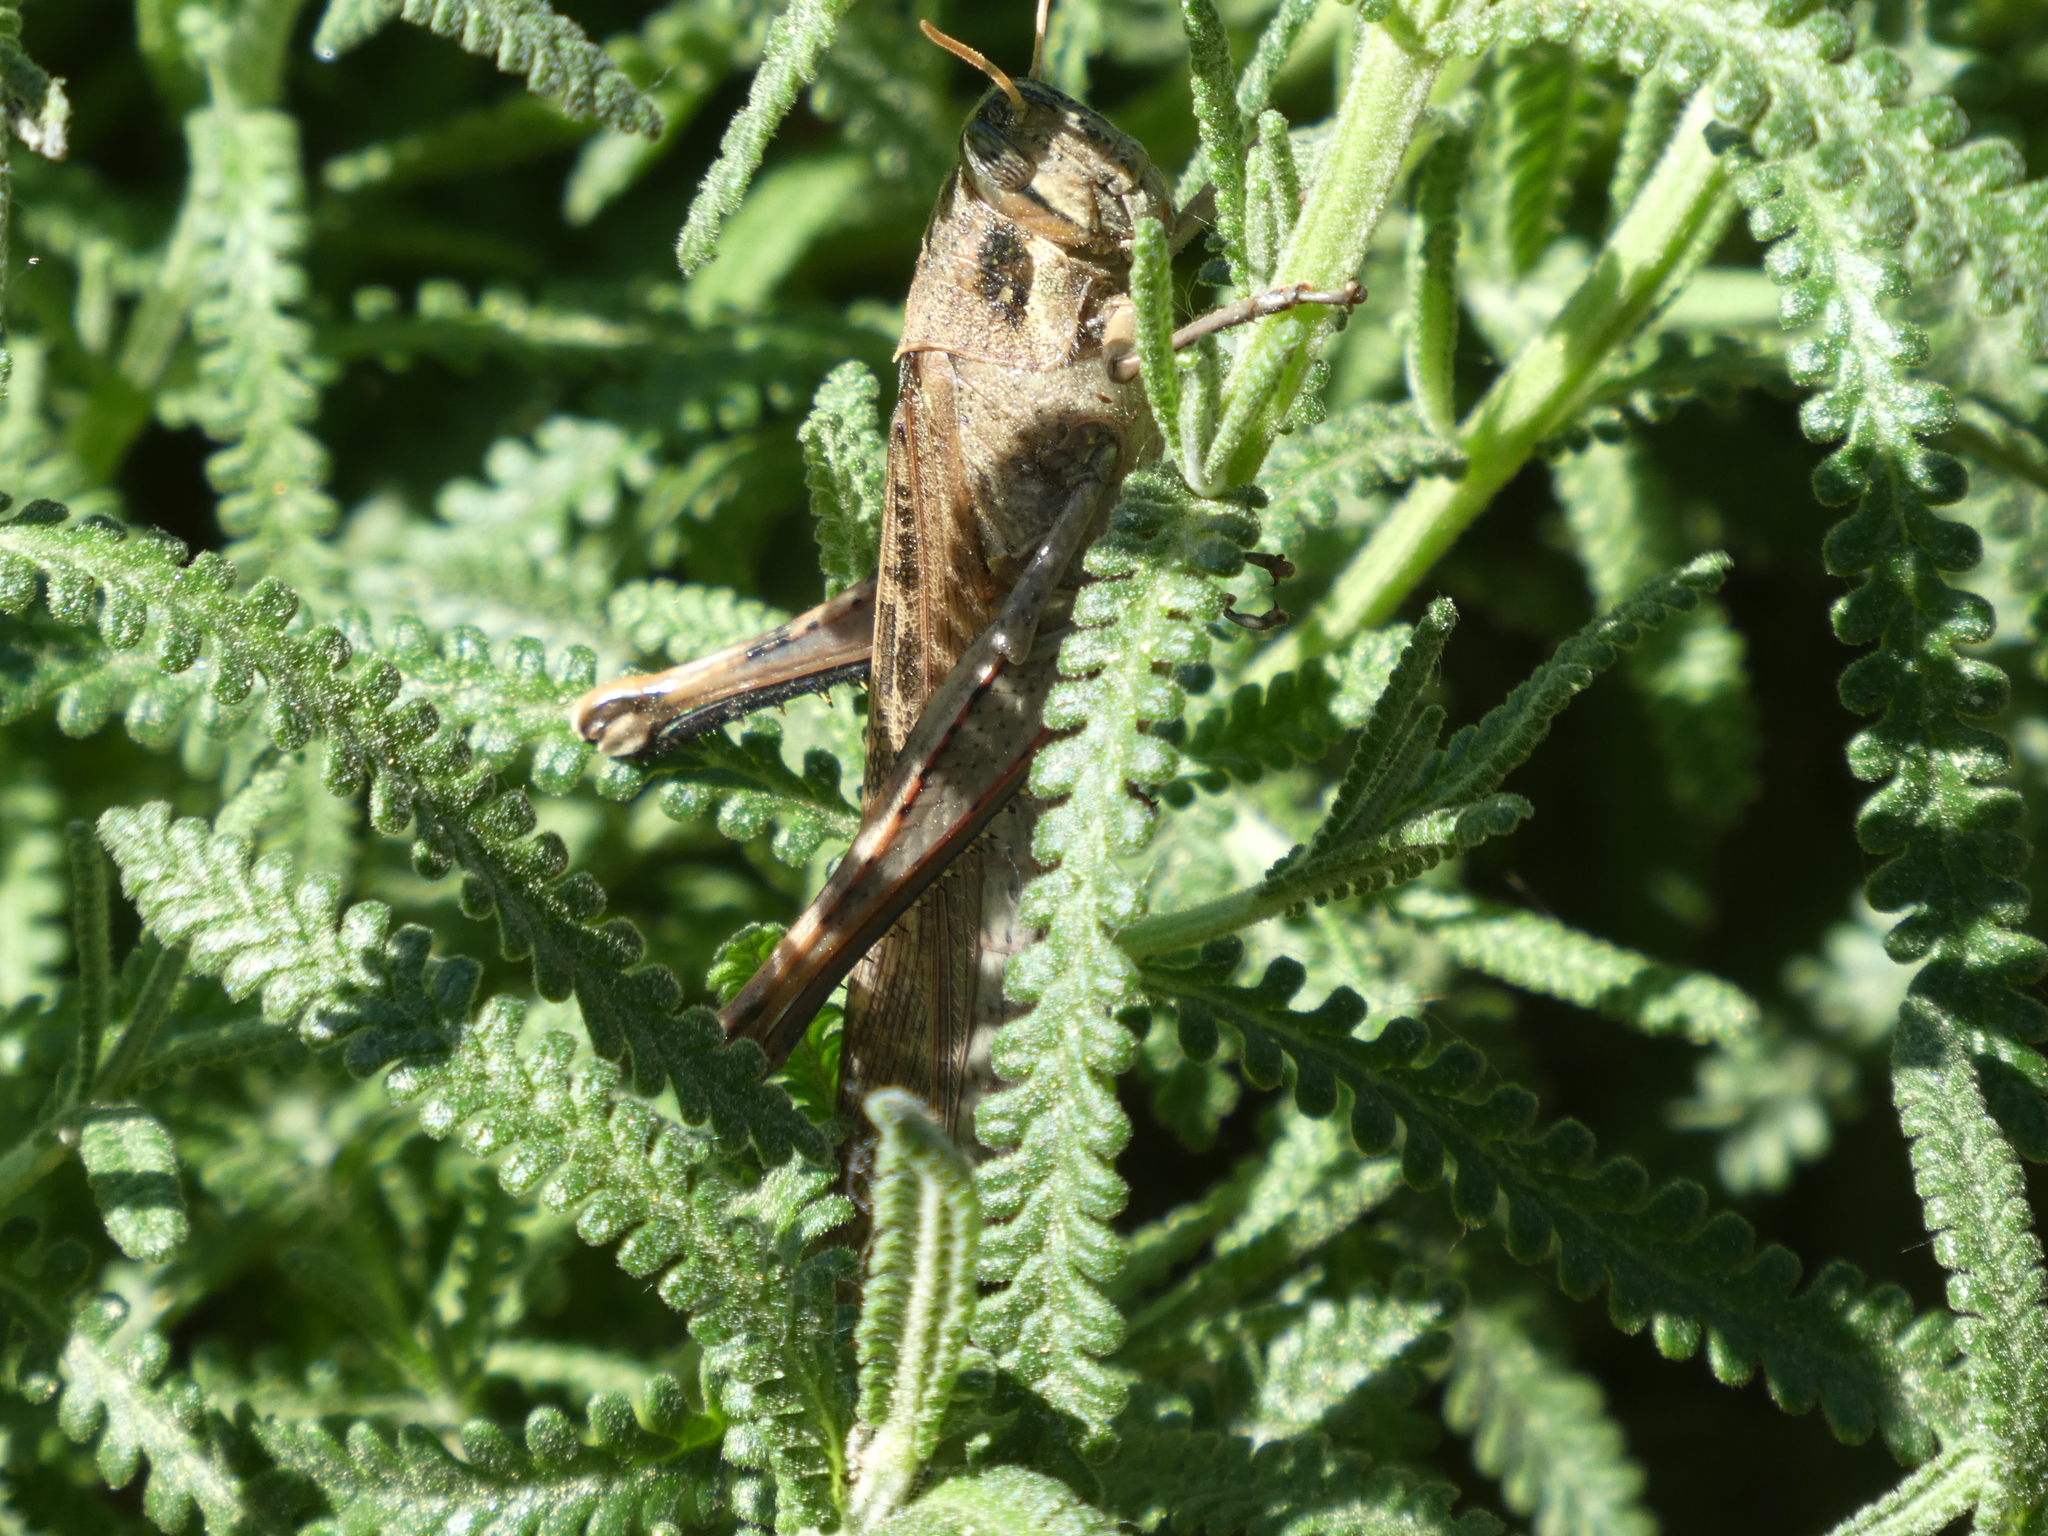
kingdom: Animalia
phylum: Arthropoda
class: Insecta
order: Orthoptera
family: Acrididae
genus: Schistocerca
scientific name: Schistocerca nitens
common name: Vagrant grasshopper
